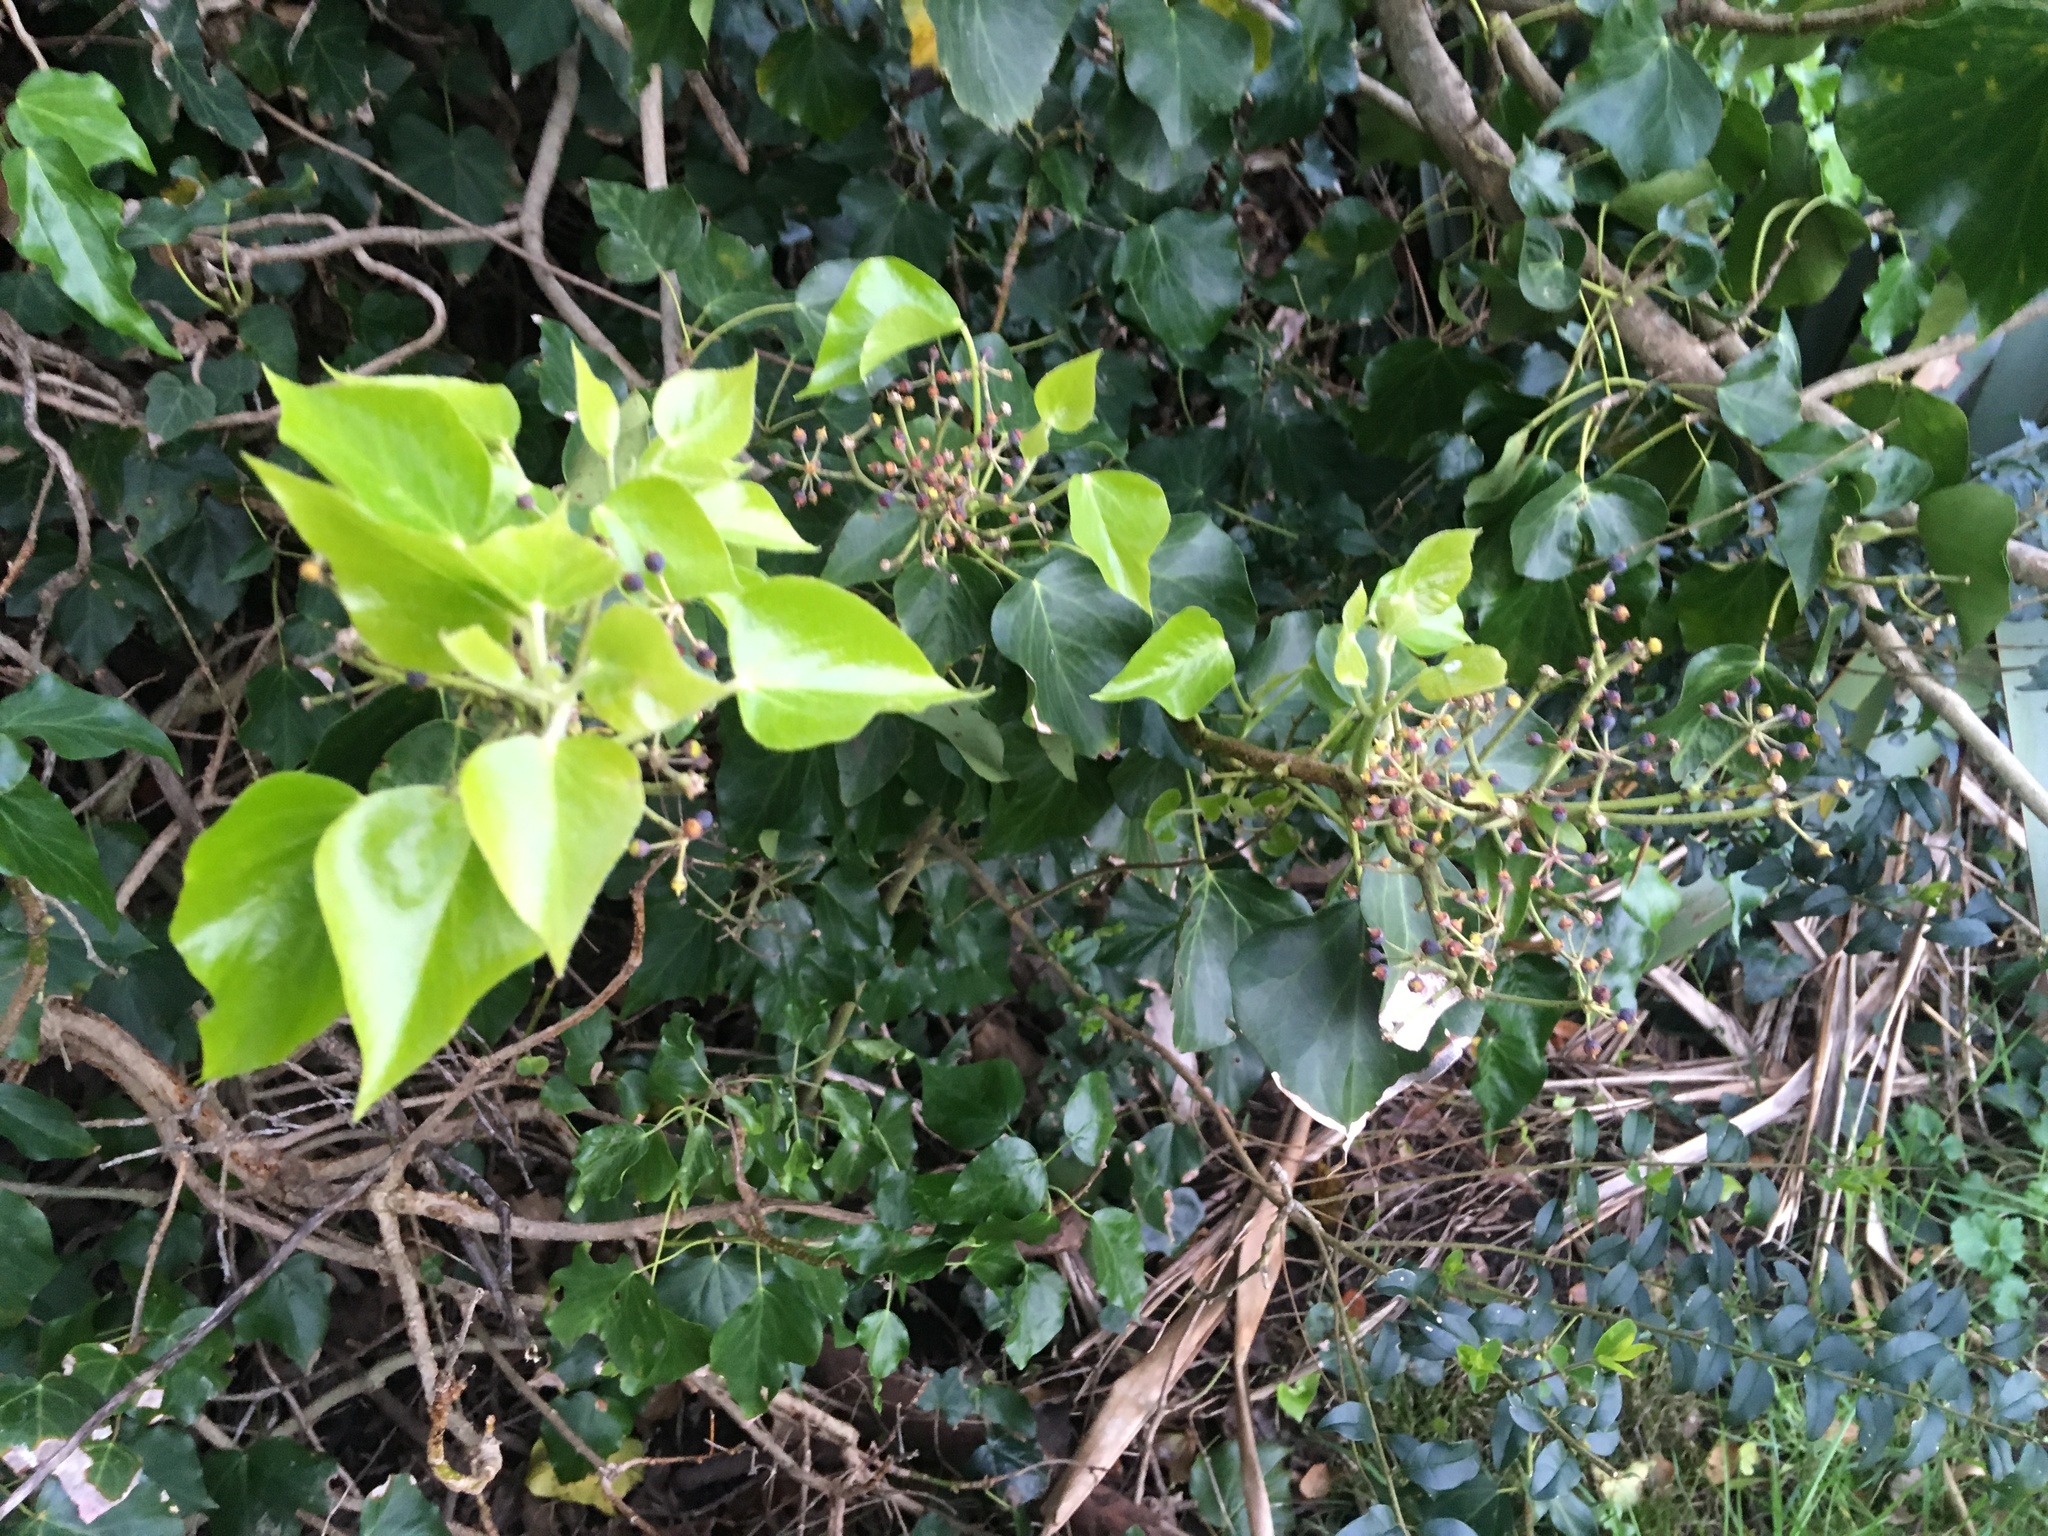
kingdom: Plantae
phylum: Tracheophyta
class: Magnoliopsida
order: Apiales
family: Araliaceae
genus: Hedera
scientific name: Hedera helix
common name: Ivy
